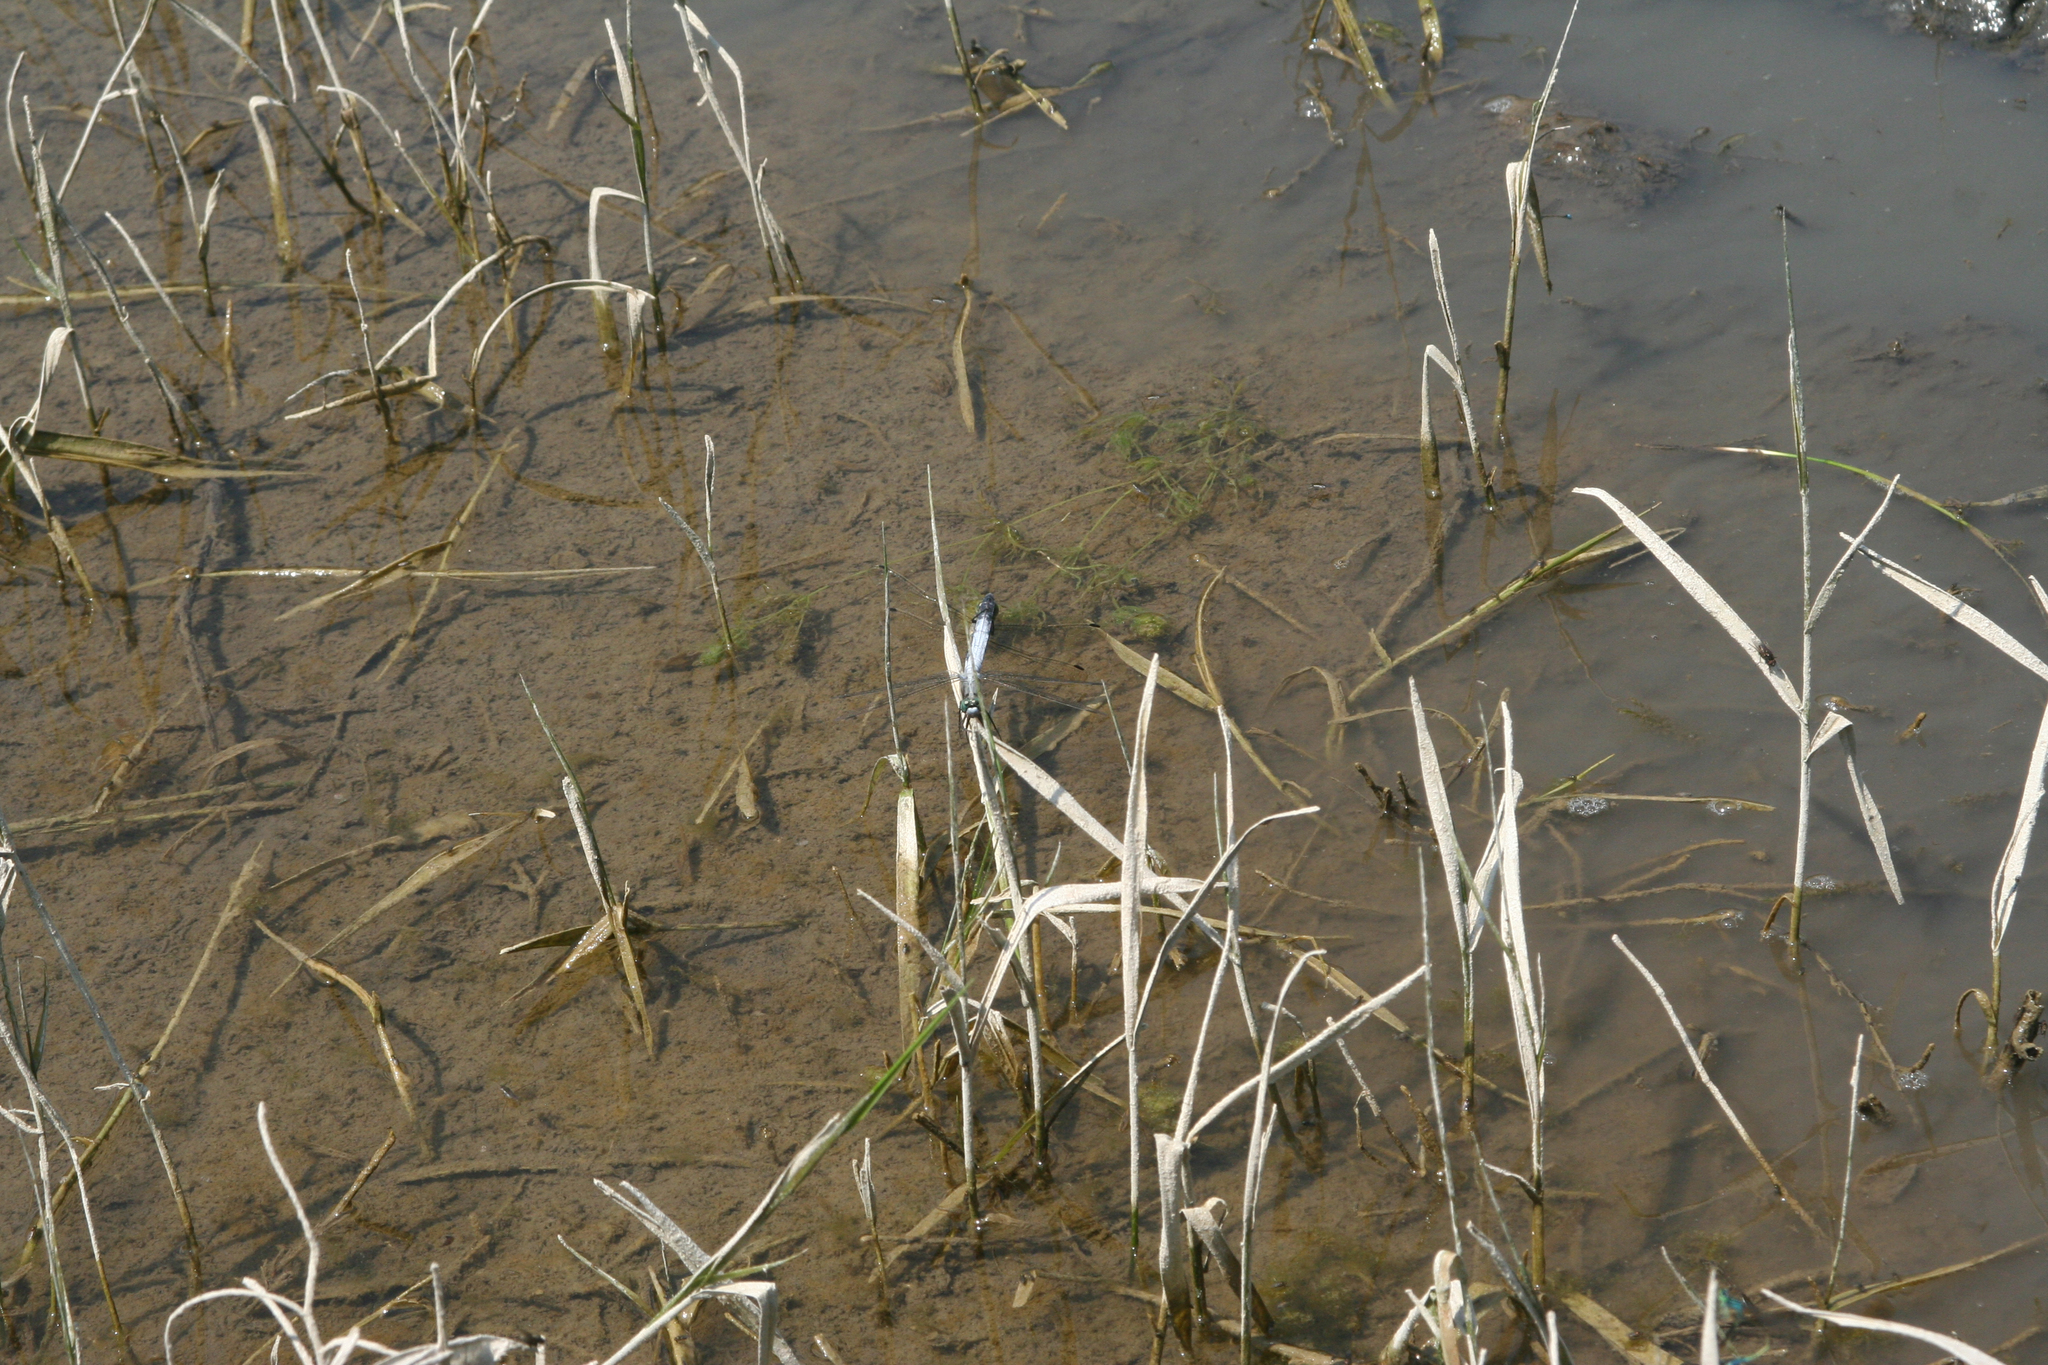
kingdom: Animalia
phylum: Arthropoda
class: Insecta
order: Odonata
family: Libellulidae
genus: Orthetrum
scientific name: Orthetrum albistylum
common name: White-tailed skimmer
